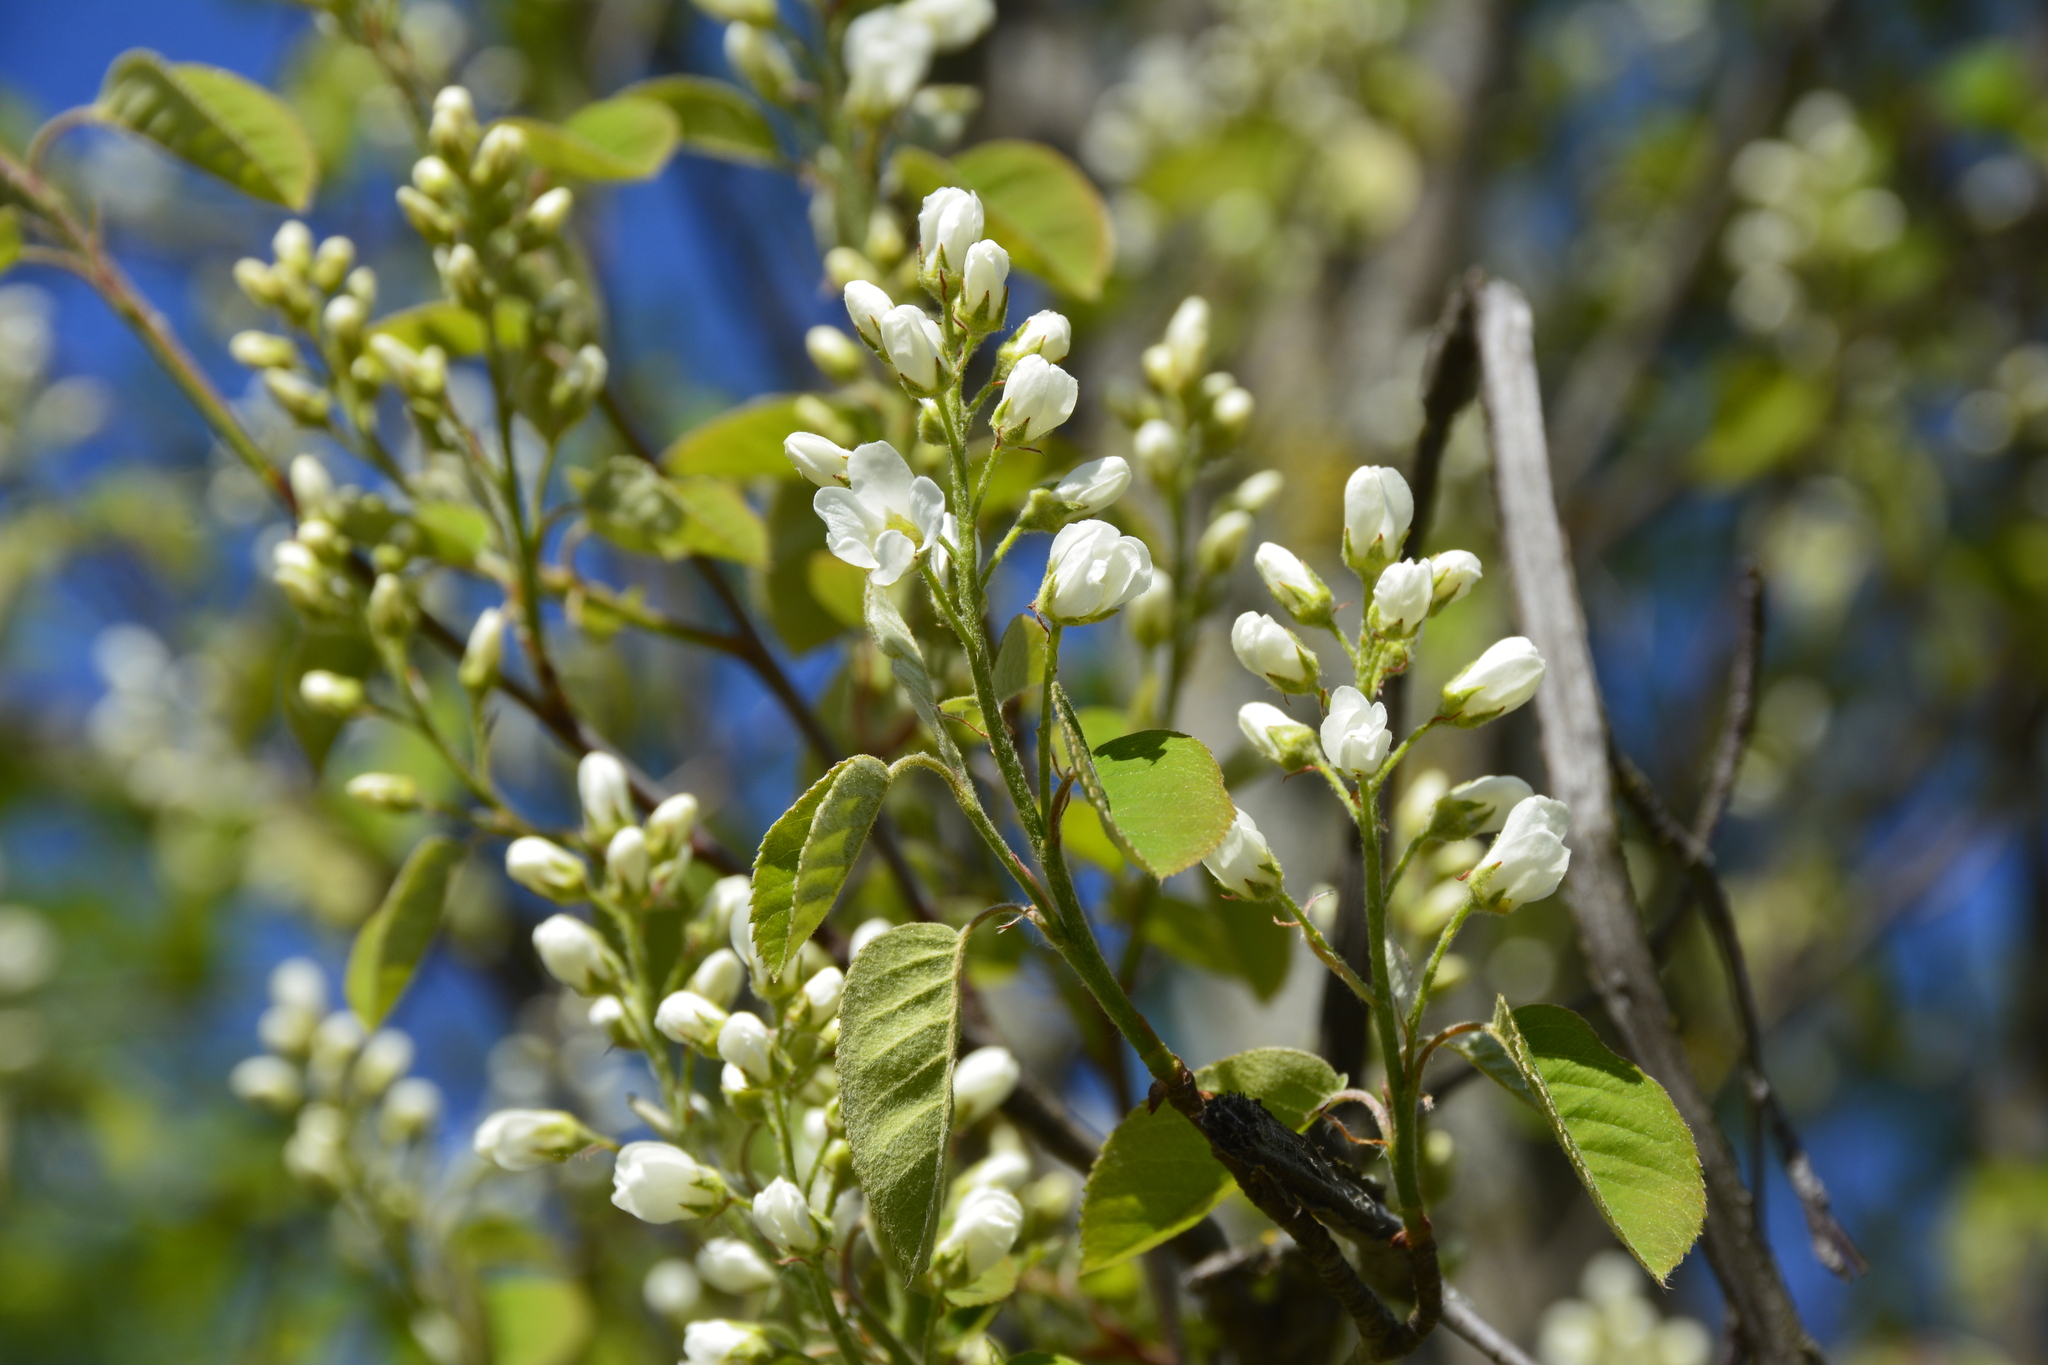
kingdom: Plantae
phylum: Tracheophyta
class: Magnoliopsida
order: Rosales
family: Rosaceae
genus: Amelanchier
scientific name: Amelanchier
